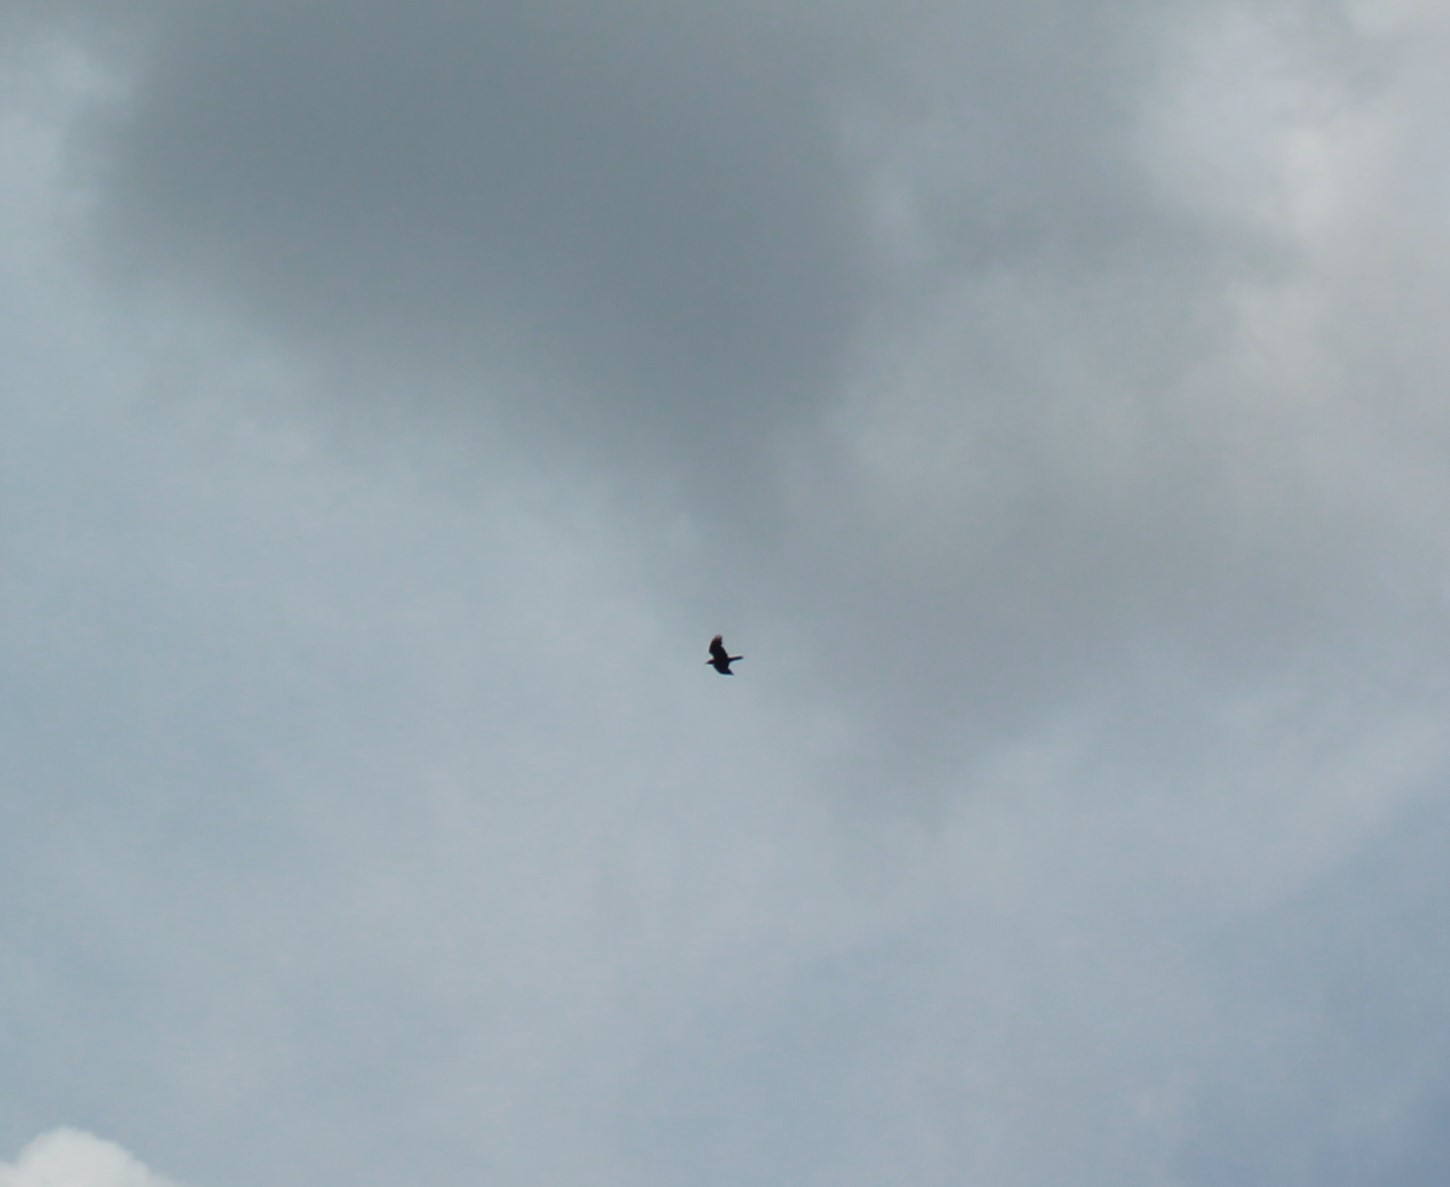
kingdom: Animalia
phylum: Chordata
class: Aves
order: Passeriformes
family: Corvidae
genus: Corvus
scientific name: Corvus corax
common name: Common raven
